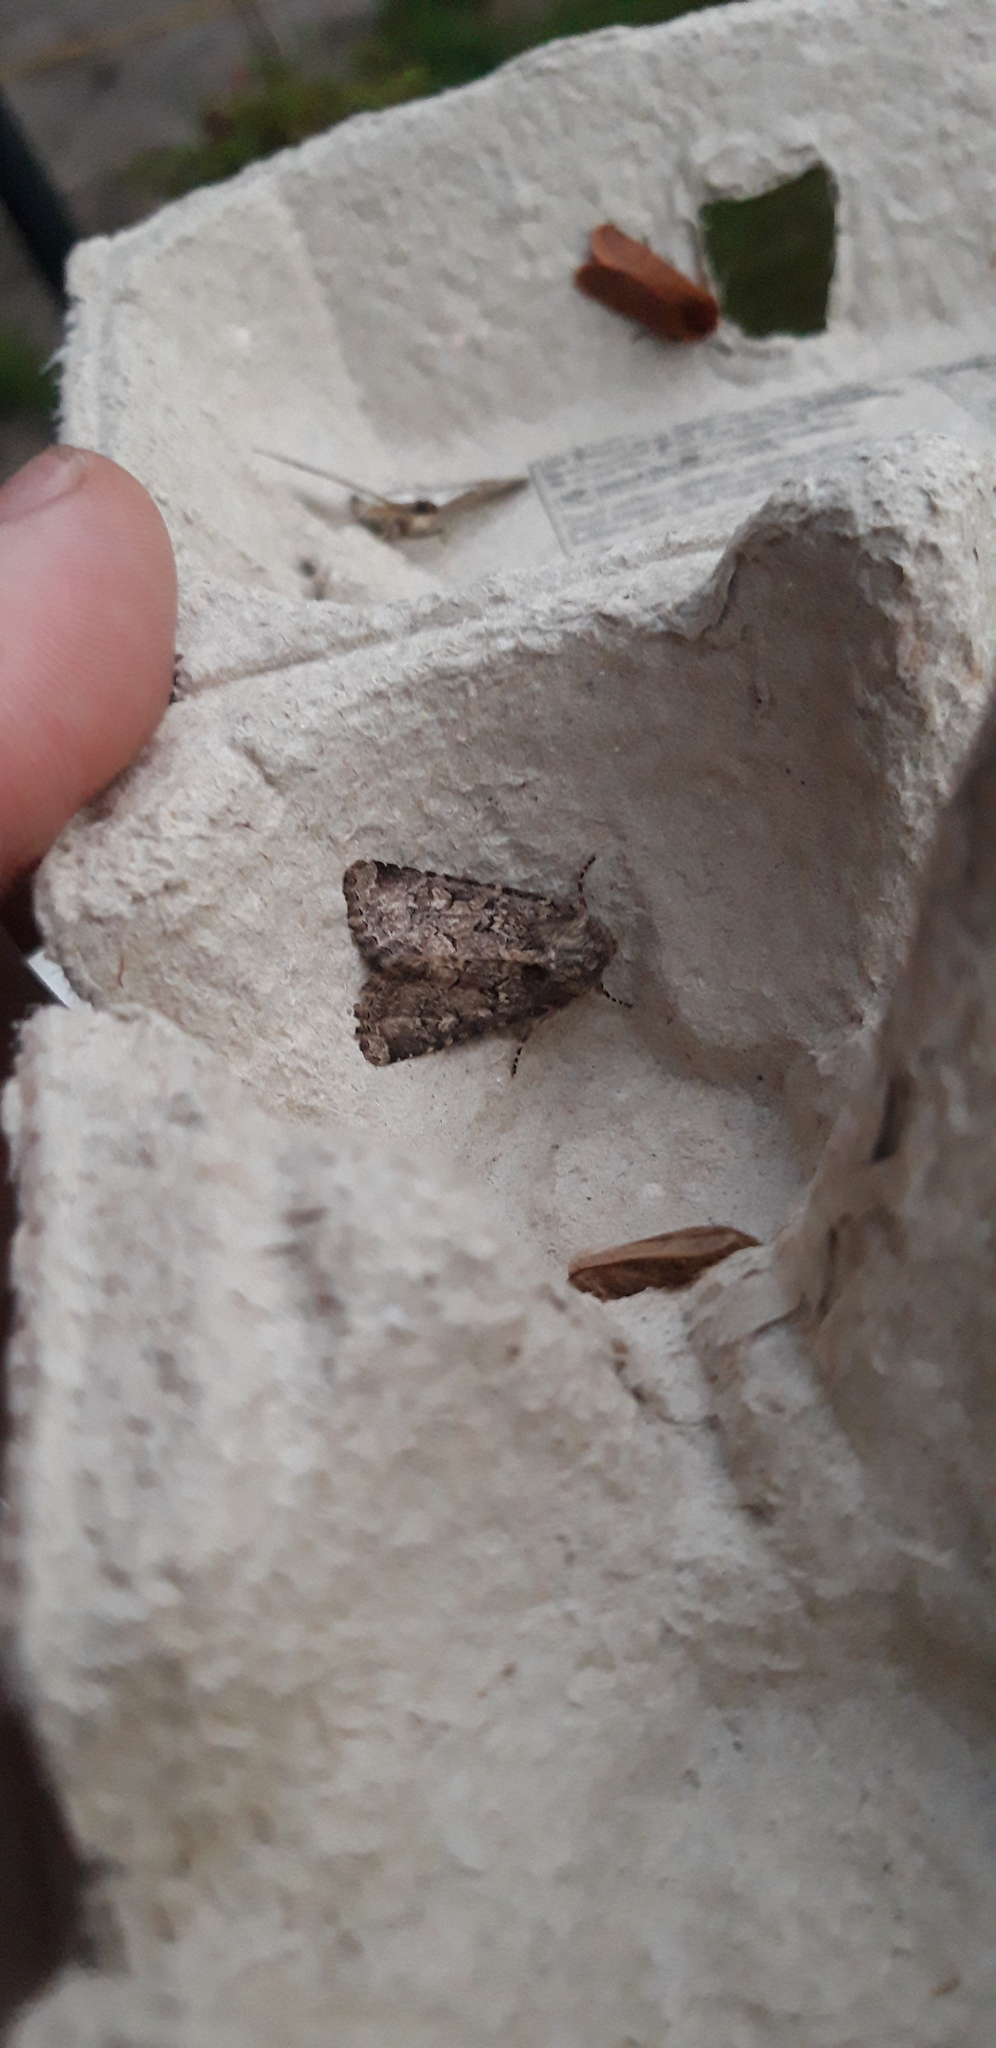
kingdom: Animalia
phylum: Arthropoda
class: Insecta
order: Lepidoptera
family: Noctuidae
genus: Luperina
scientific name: Luperina testacea
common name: Flounced rustic
